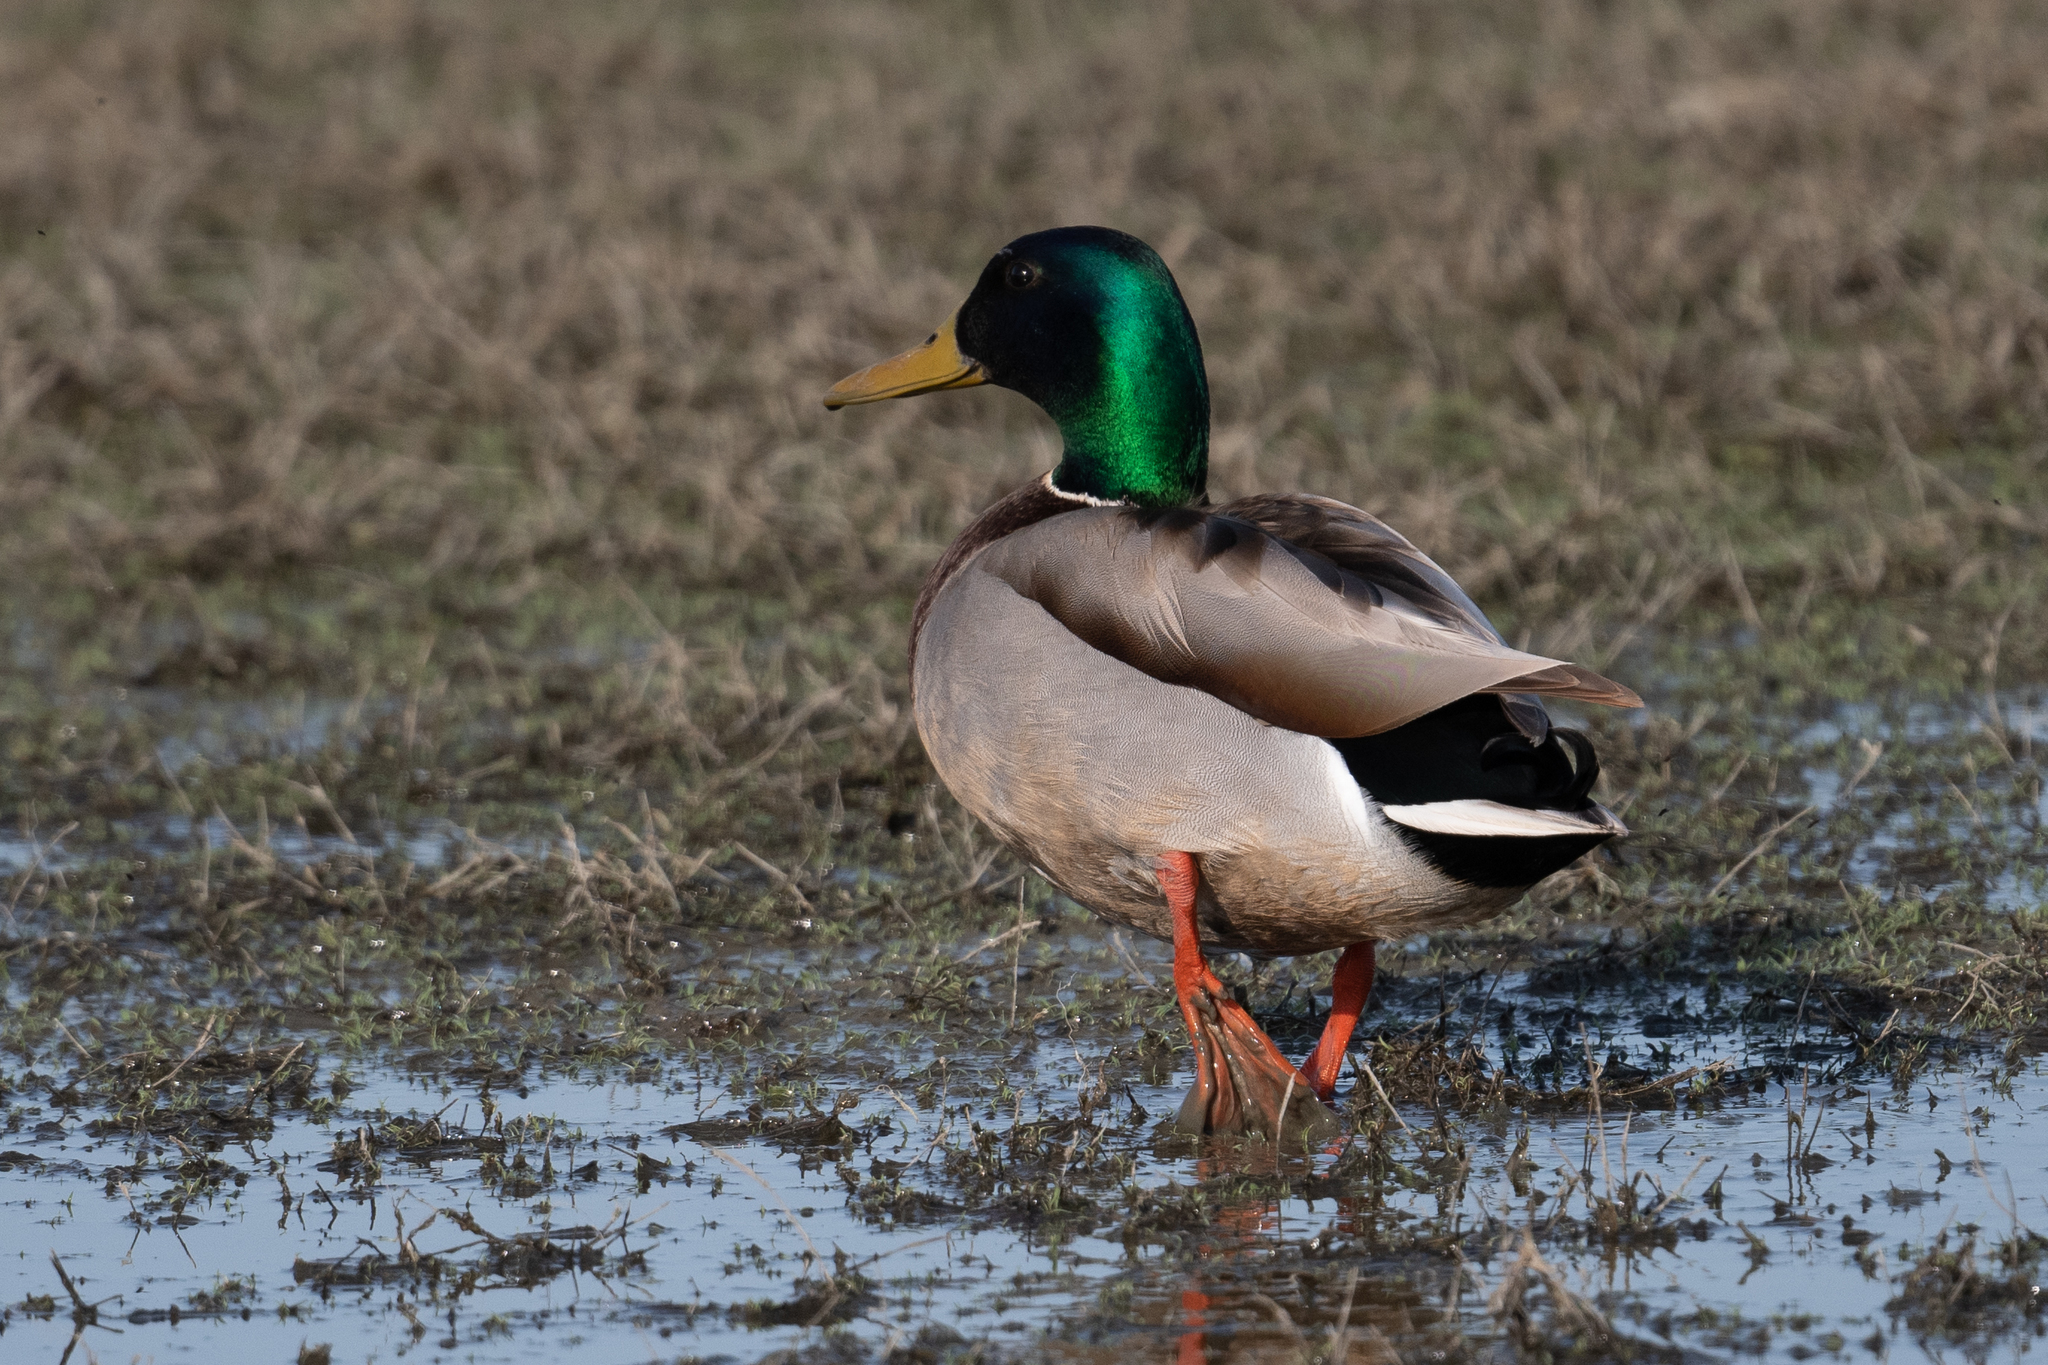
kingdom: Animalia
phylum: Chordata
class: Aves
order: Anseriformes
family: Anatidae
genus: Anas
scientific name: Anas platyrhynchos
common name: Mallard
